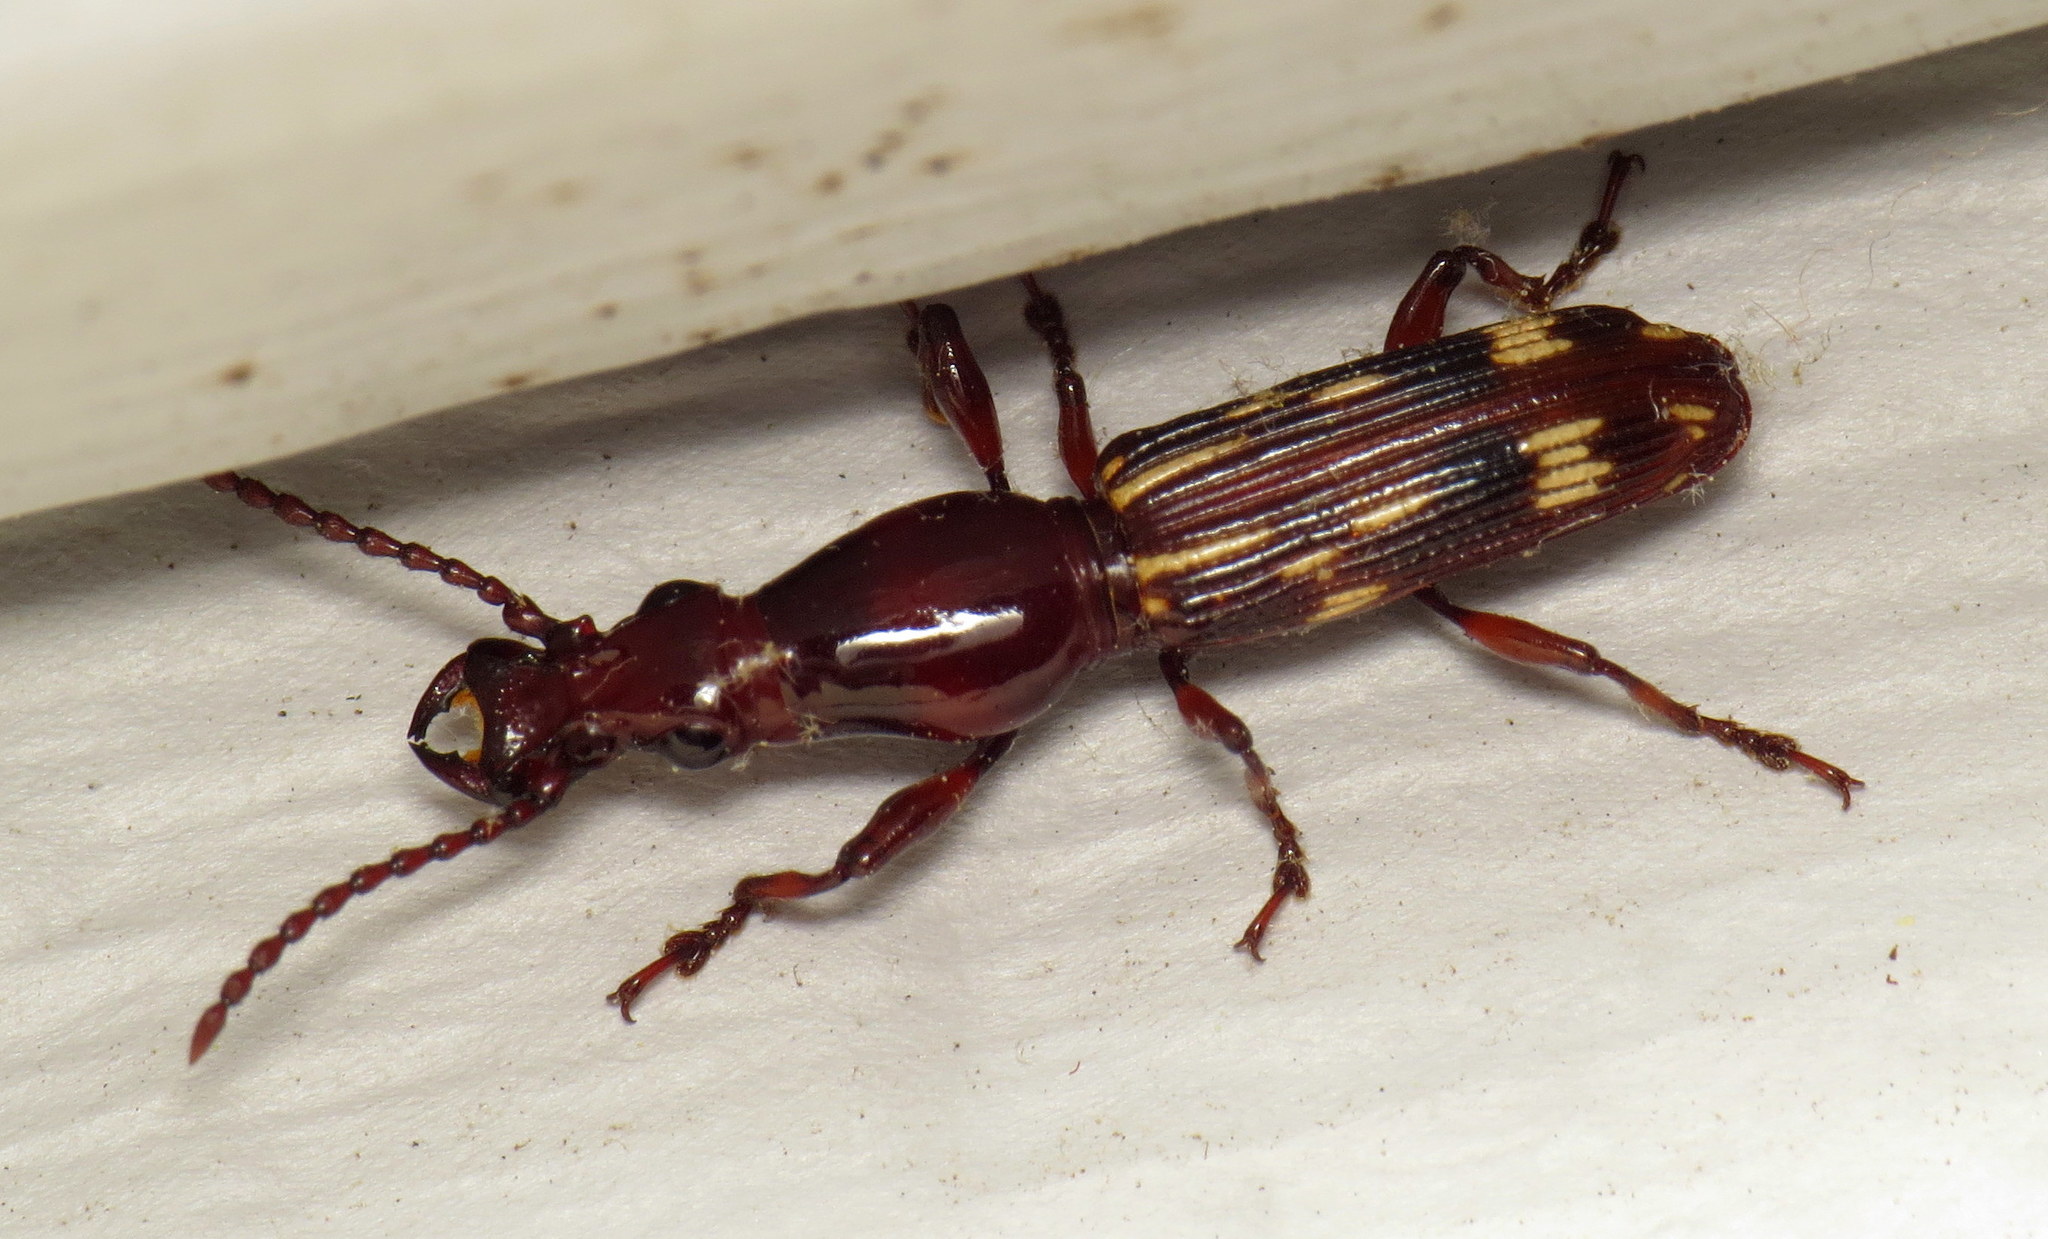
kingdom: Animalia
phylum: Arthropoda
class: Insecta
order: Coleoptera
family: Brentidae
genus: Arrenodes
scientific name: Arrenodes minutus
